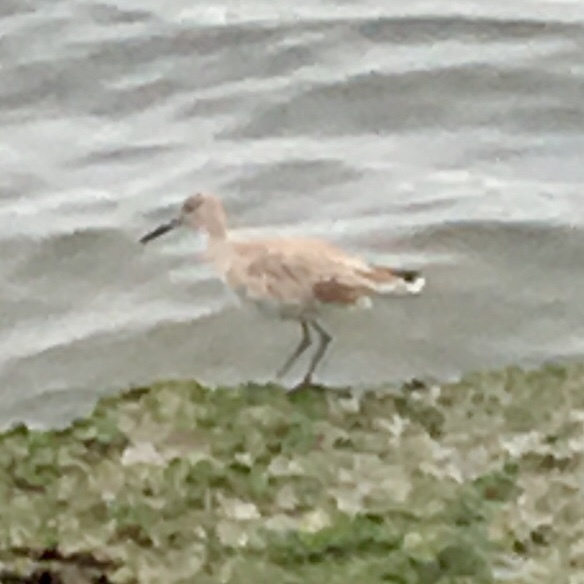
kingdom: Animalia
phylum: Chordata
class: Aves
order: Charadriiformes
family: Scolopacidae
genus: Tringa
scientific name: Tringa semipalmata
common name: Willet
